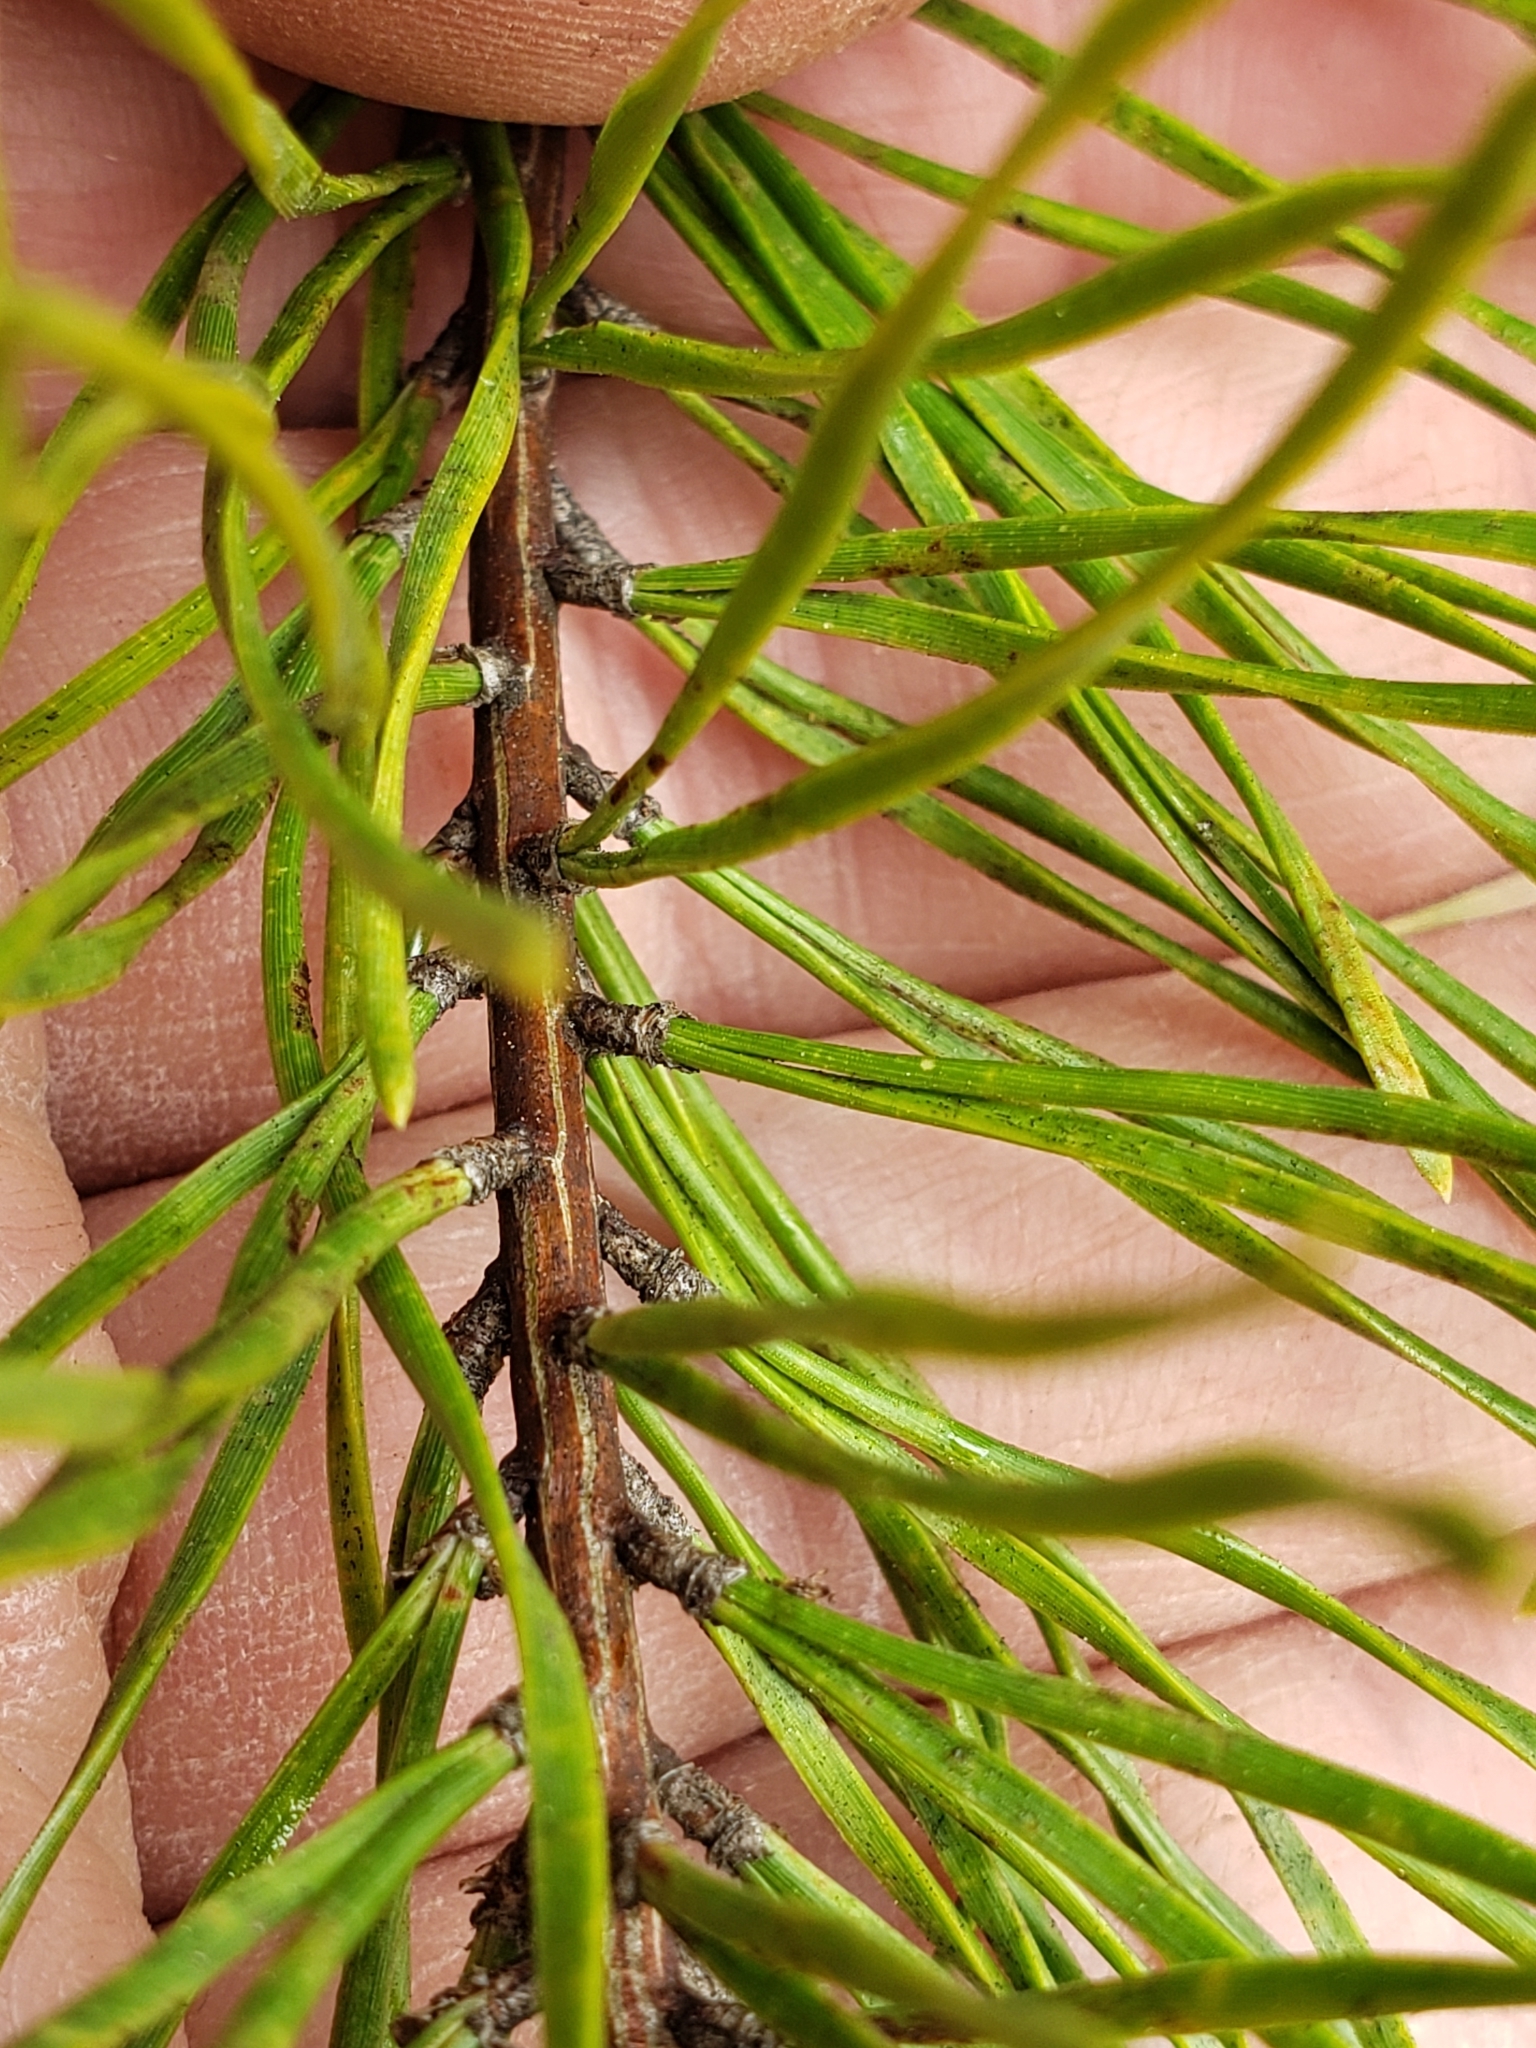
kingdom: Plantae
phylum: Tracheophyta
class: Pinopsida
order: Pinales
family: Pinaceae
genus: Pinus
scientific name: Pinus virginiana
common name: Scrub pine
